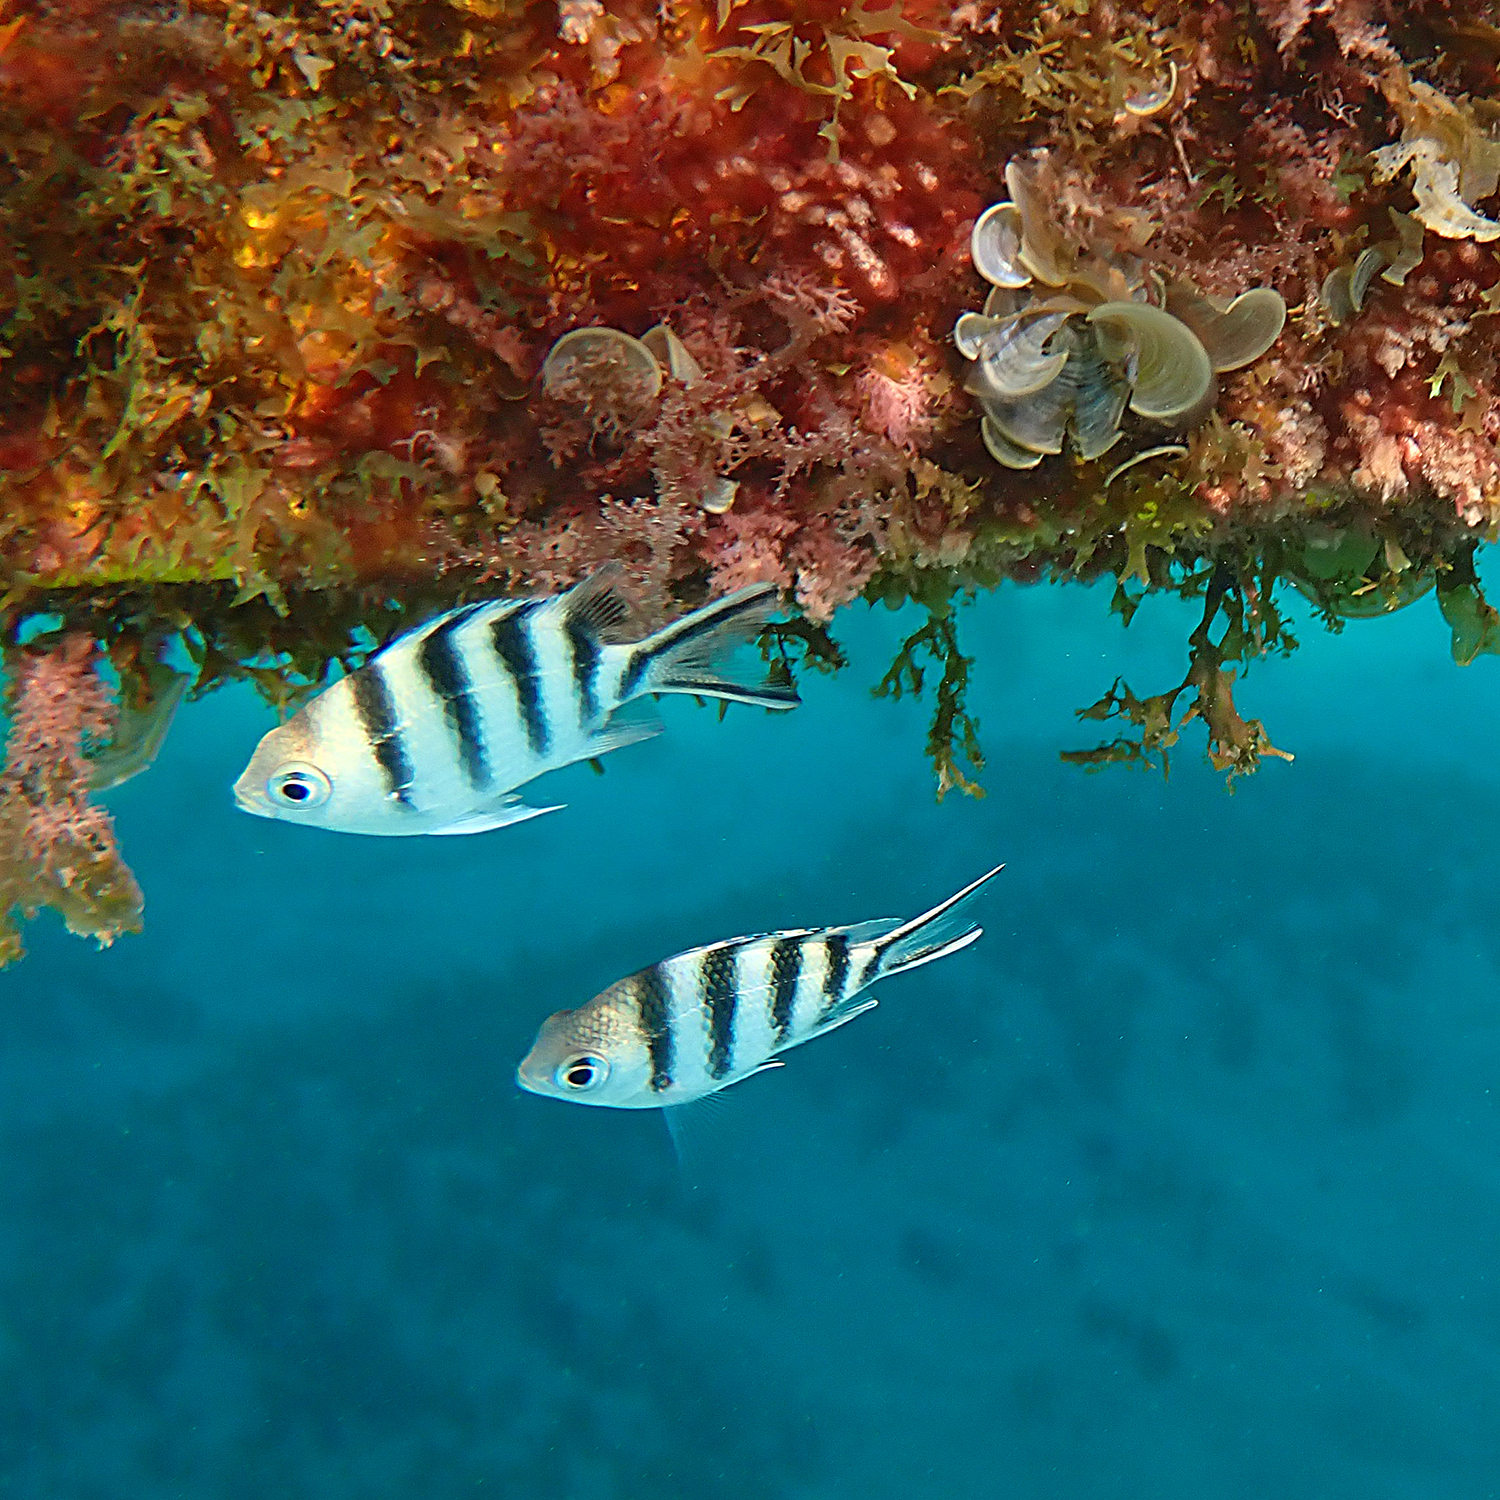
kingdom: Animalia
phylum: Chordata
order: Perciformes
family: Pomacentridae
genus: Abudefduf
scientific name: Abudefduf sexfasciatus
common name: Scissortail sergeant
